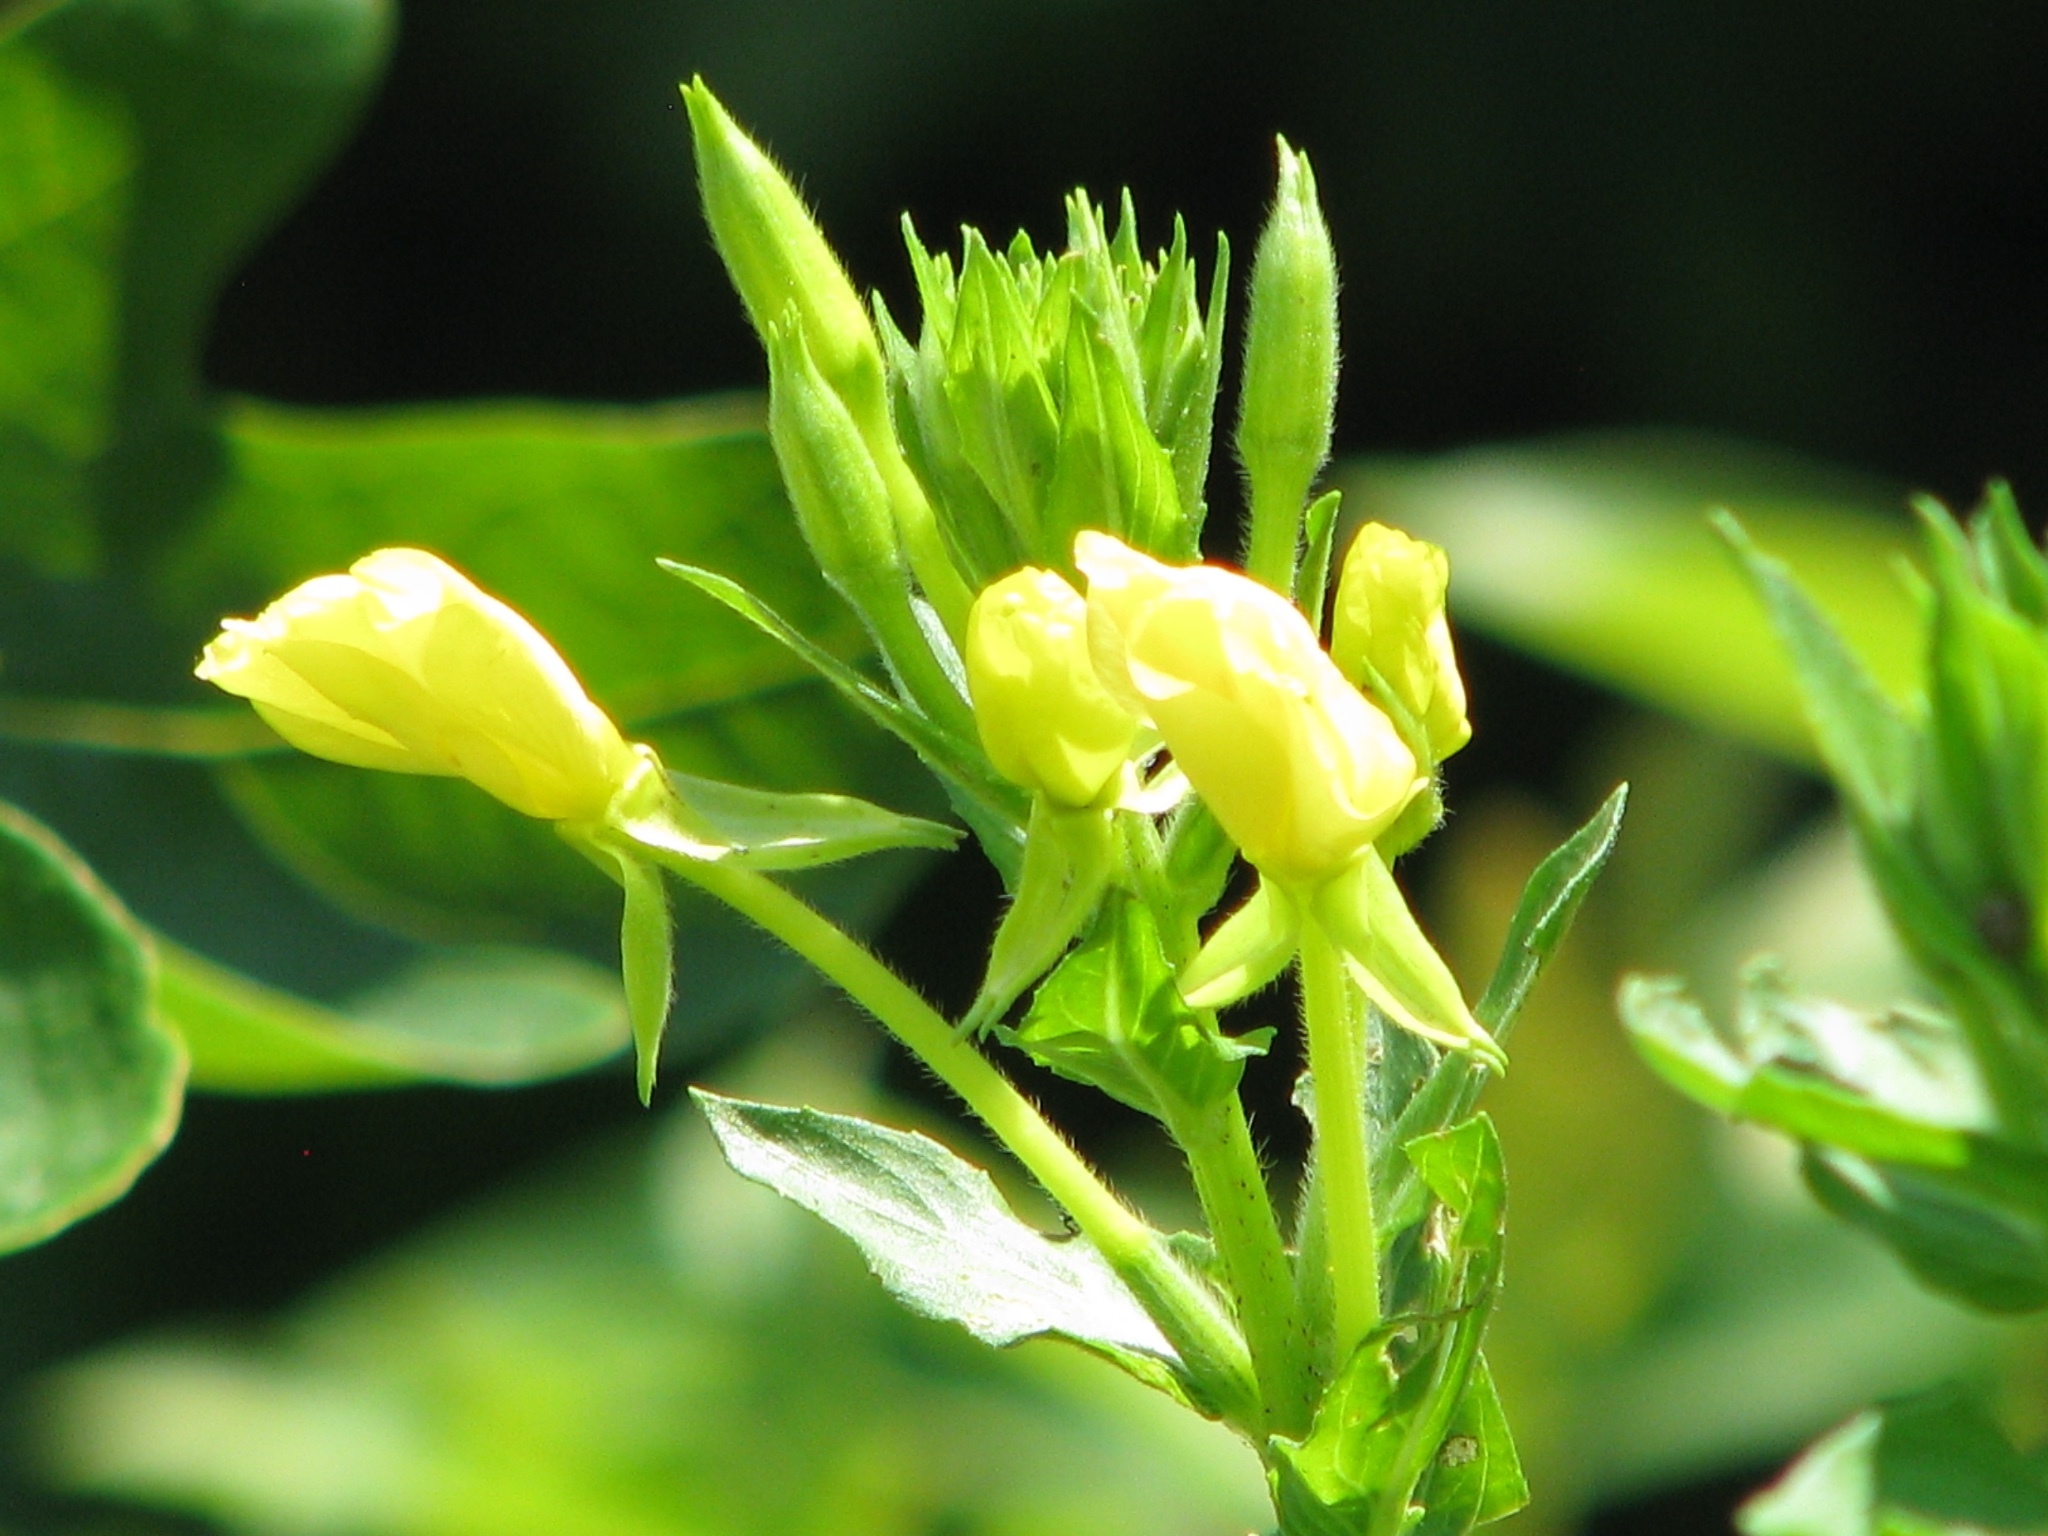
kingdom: Plantae
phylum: Tracheophyta
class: Magnoliopsida
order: Myrtales
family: Onagraceae
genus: Oenothera
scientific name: Oenothera biennis
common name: Common evening-primrose
